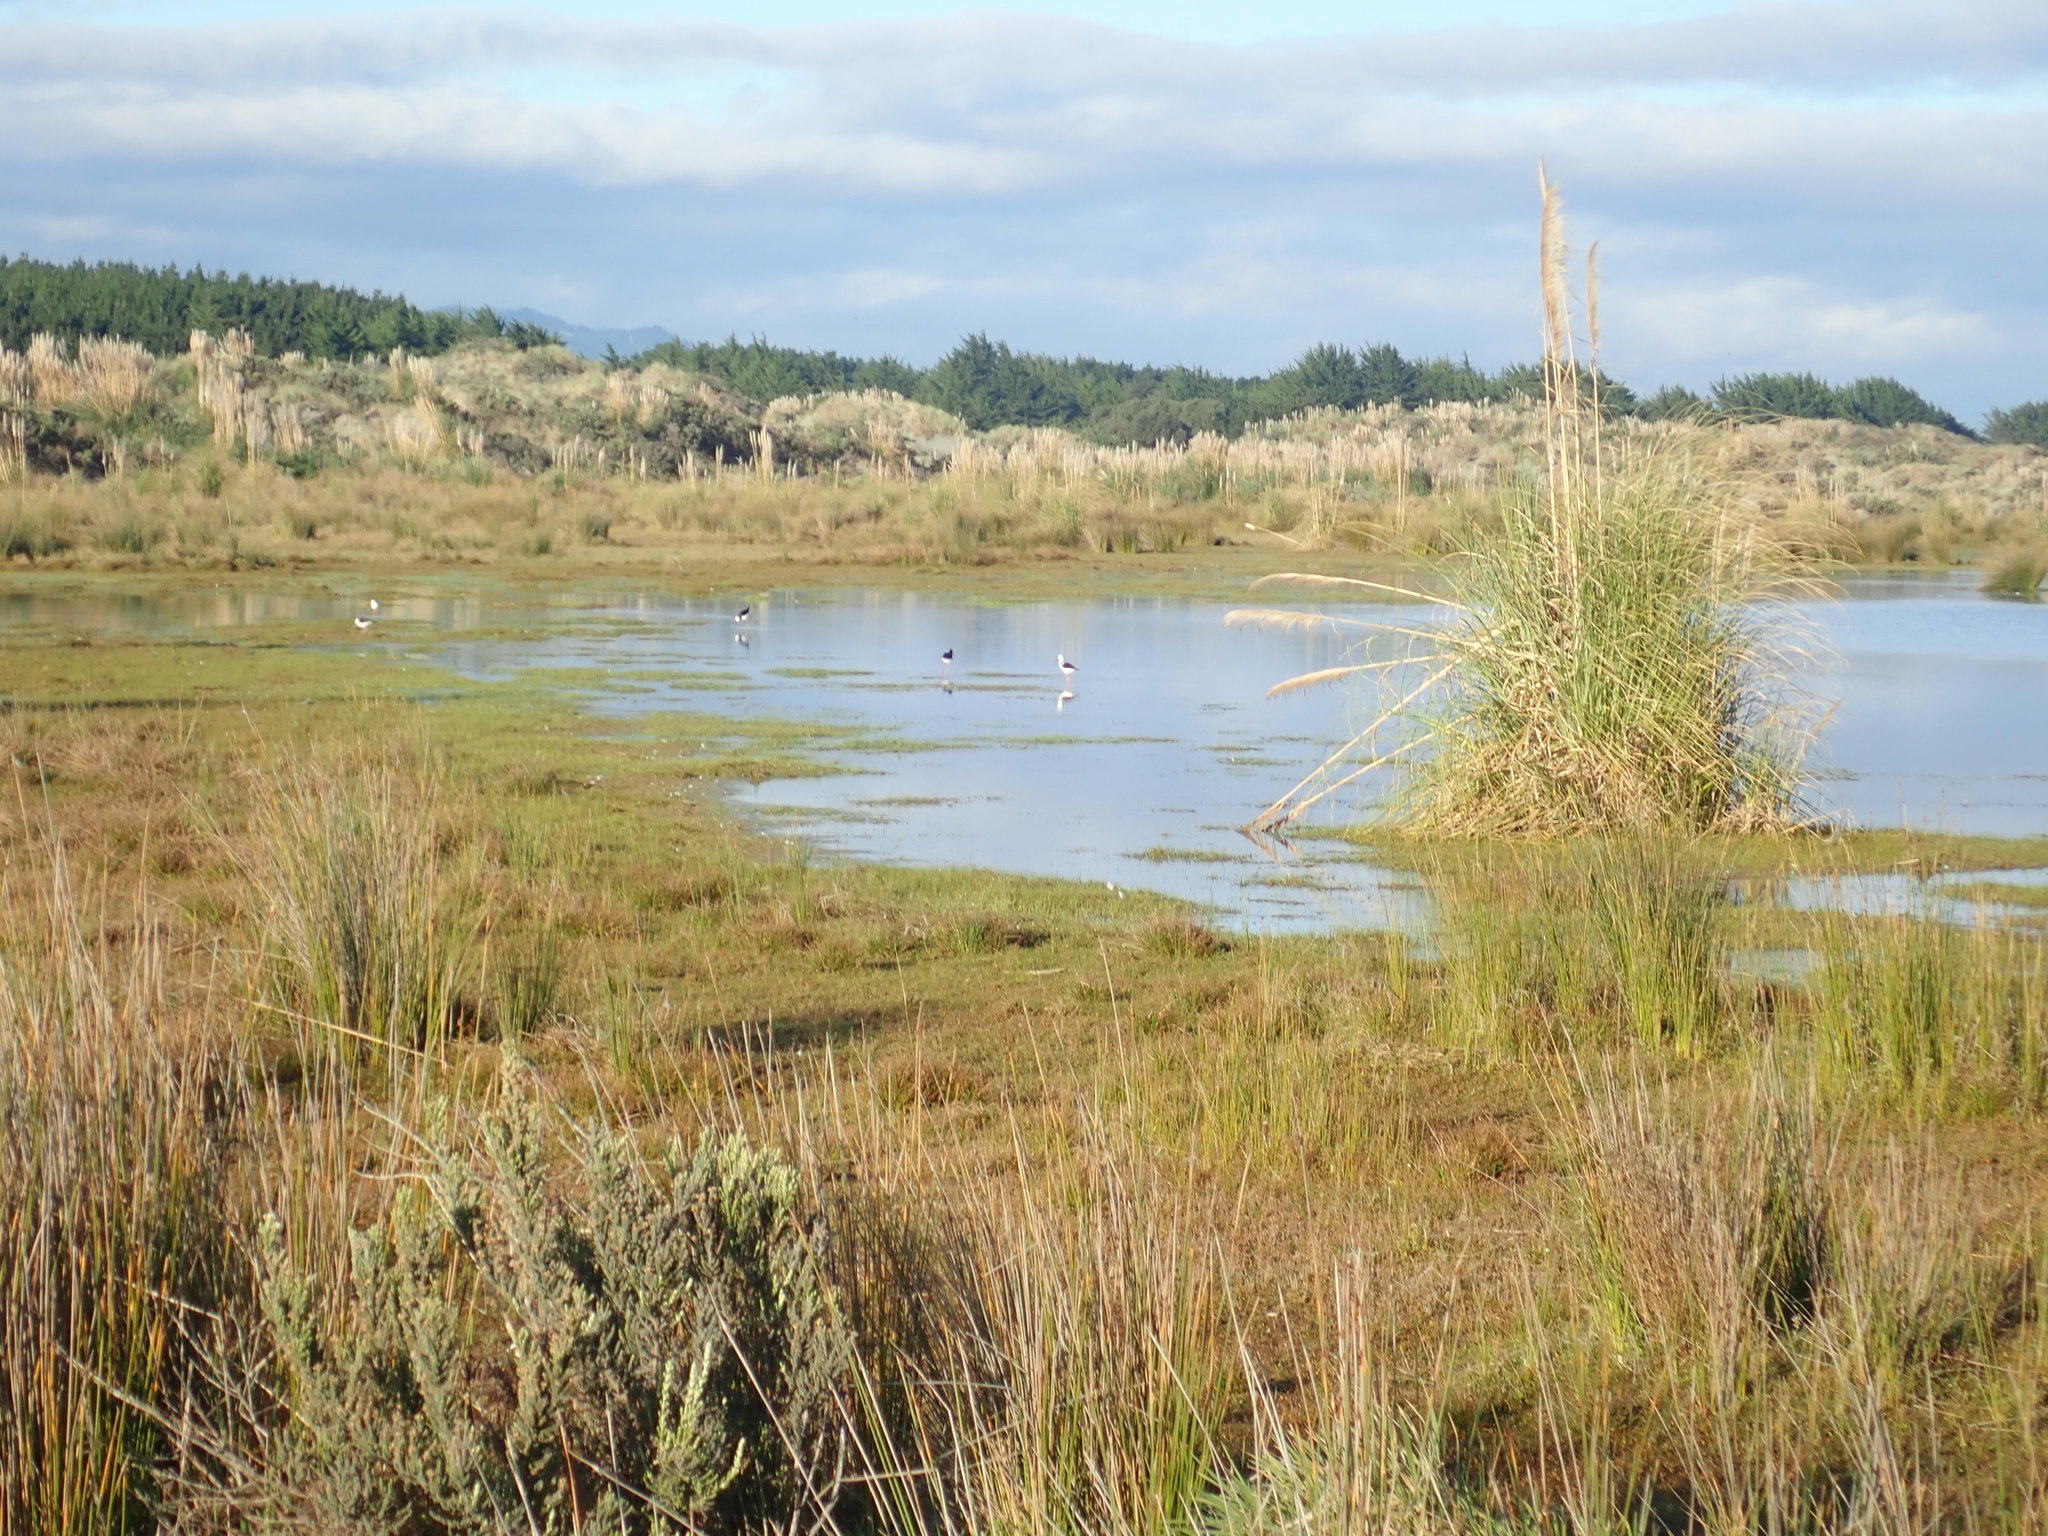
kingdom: Animalia
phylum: Chordata
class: Aves
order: Charadriiformes
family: Recurvirostridae
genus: Himantopus
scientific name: Himantopus leucocephalus
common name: White-headed stilt
